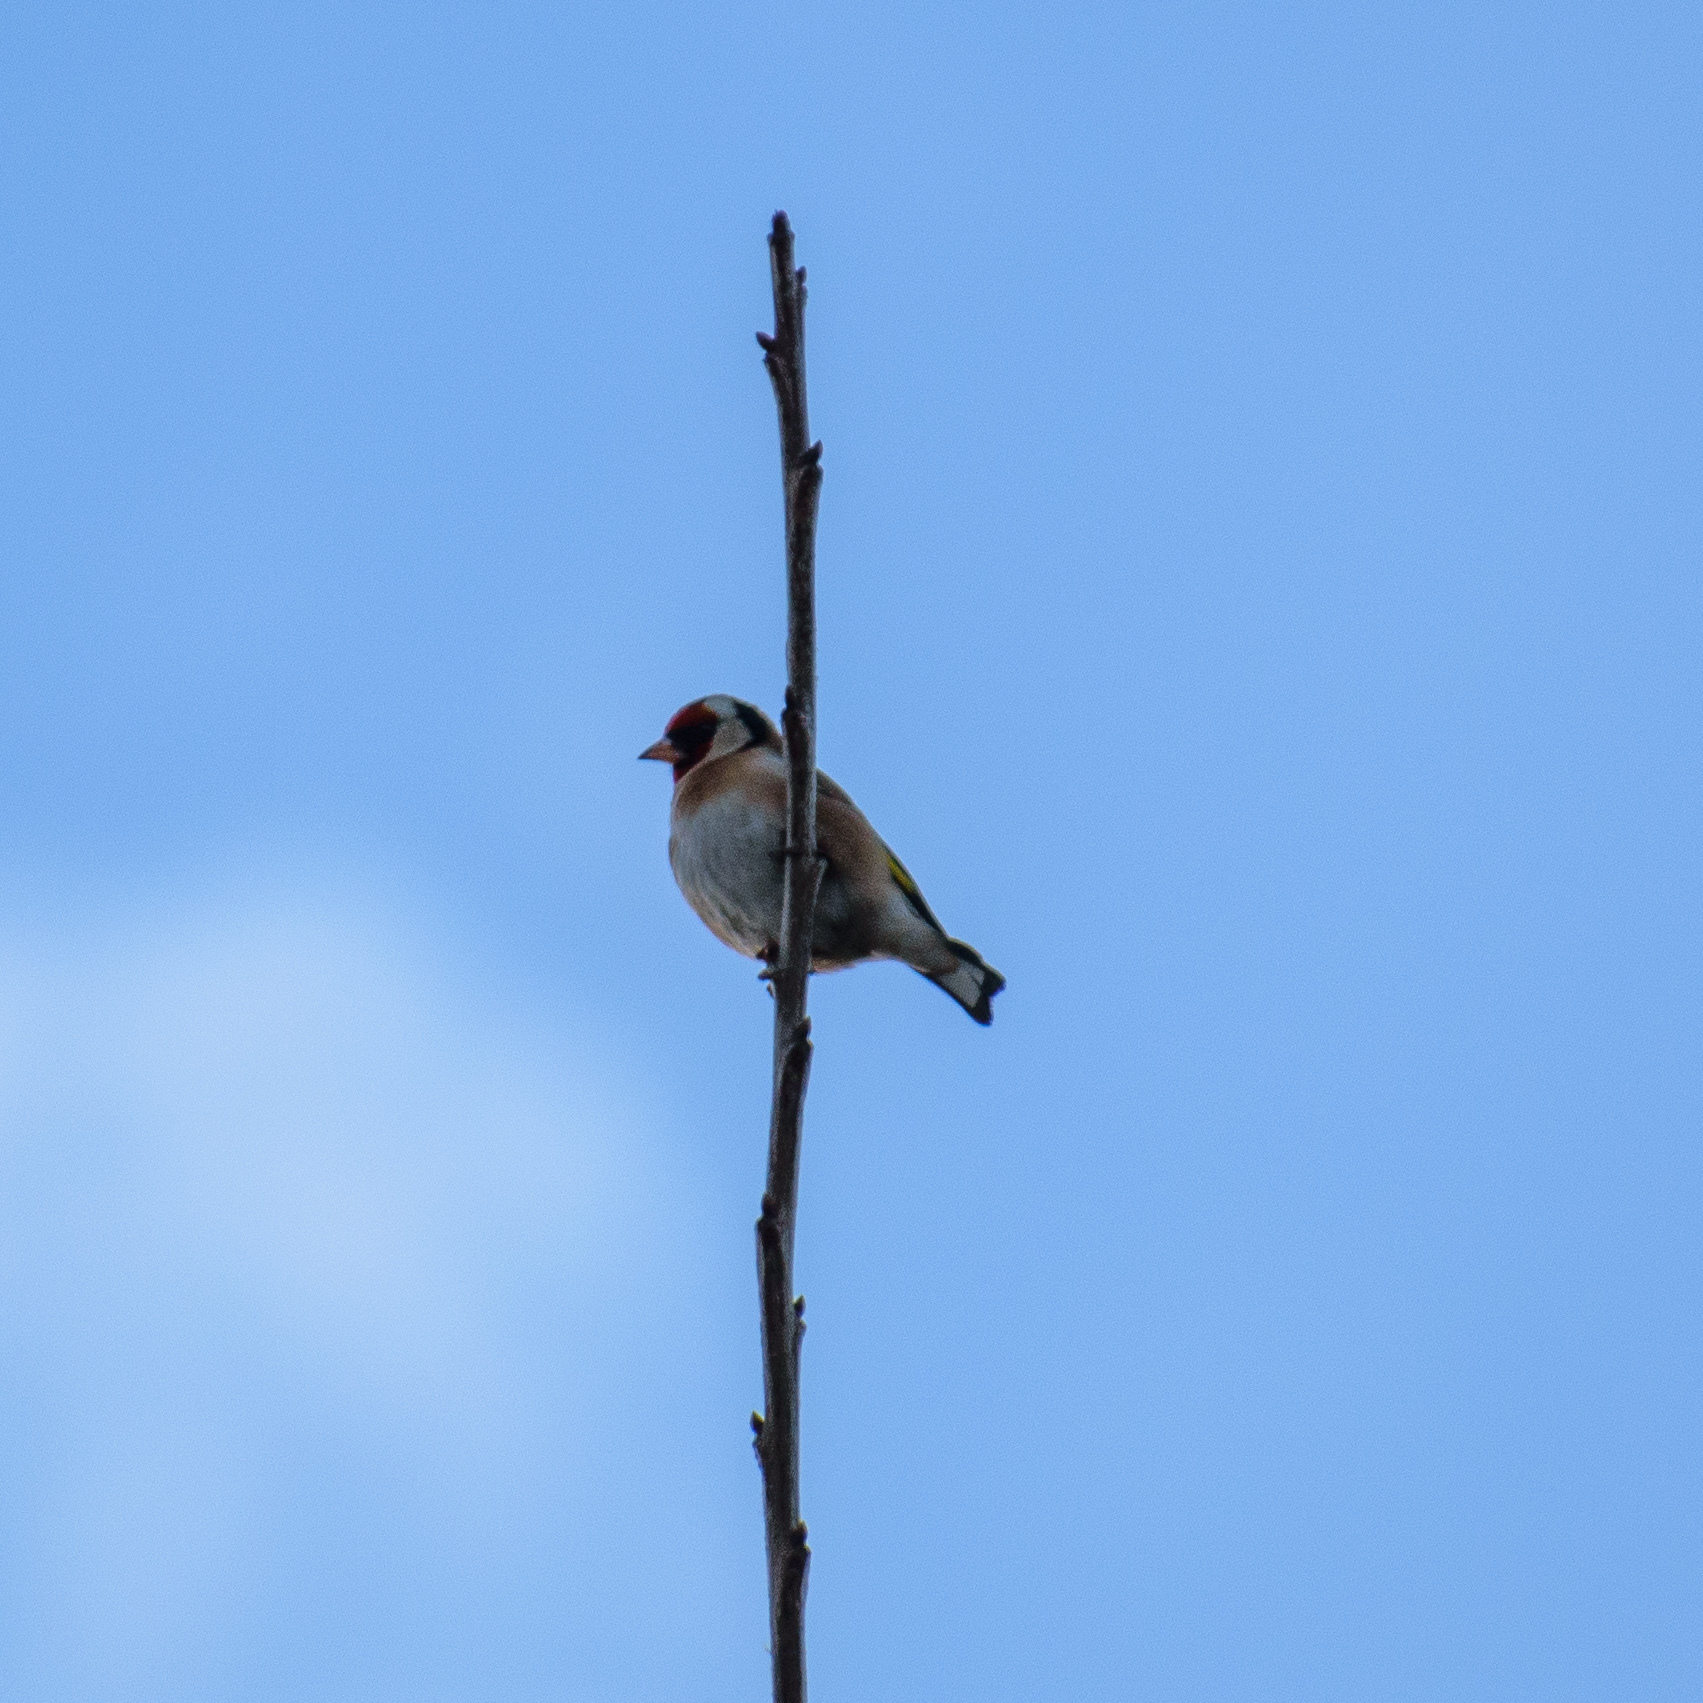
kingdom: Animalia
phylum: Chordata
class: Aves
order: Passeriformes
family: Fringillidae
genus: Carduelis
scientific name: Carduelis carduelis
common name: European goldfinch
